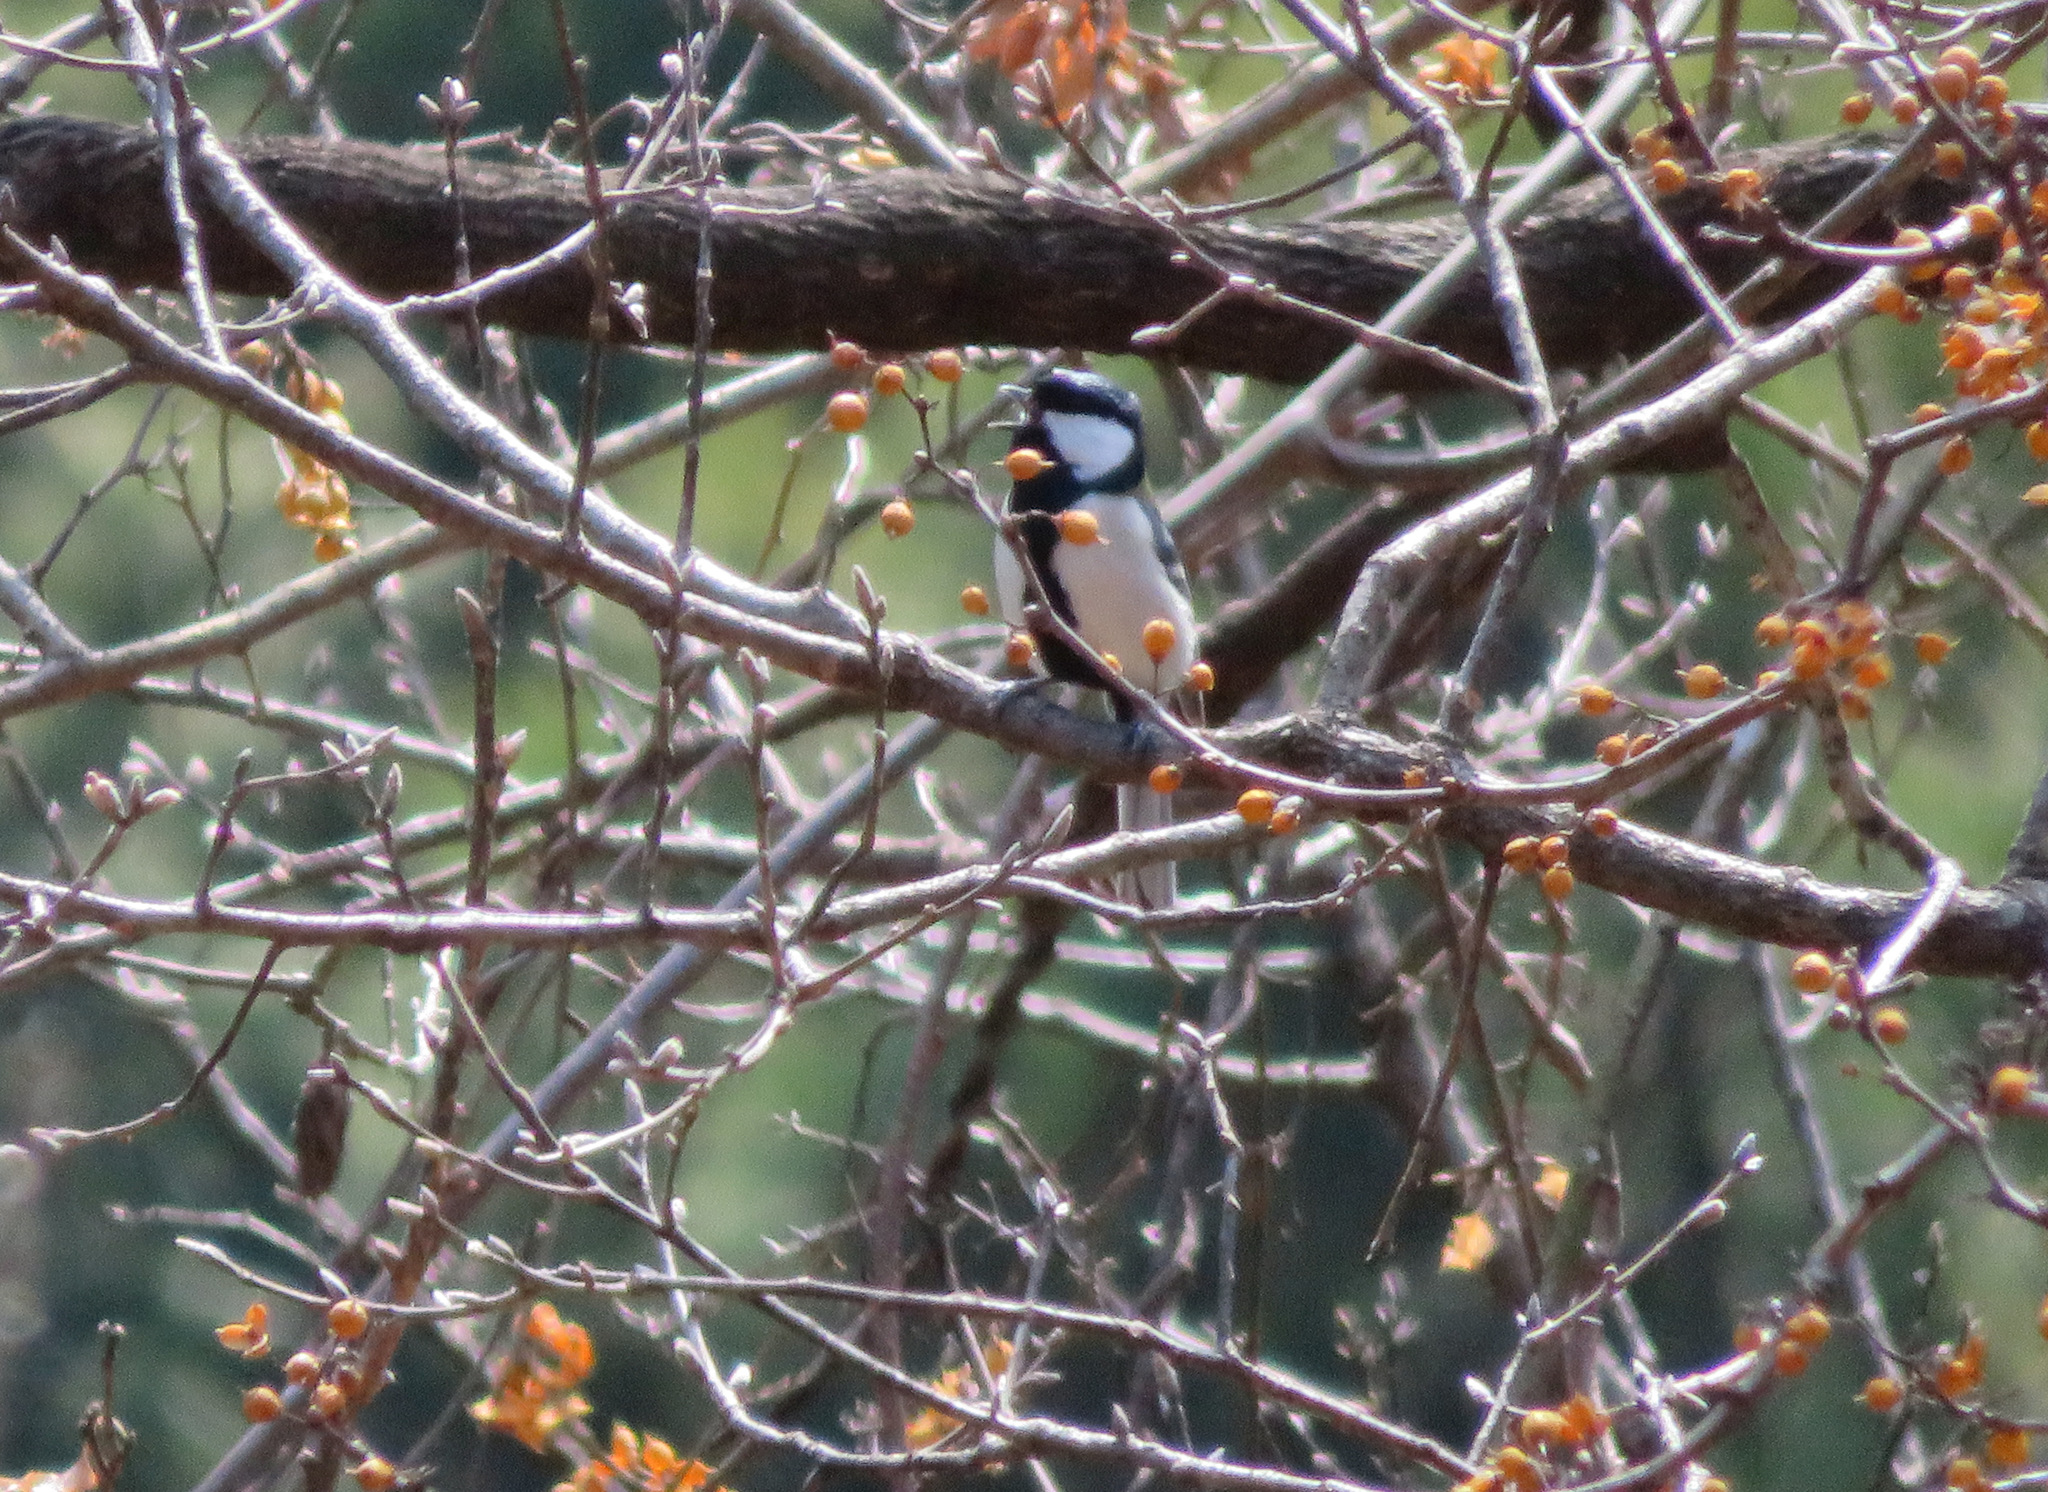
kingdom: Animalia
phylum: Chordata
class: Aves
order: Passeriformes
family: Paridae
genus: Parus
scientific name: Parus minor
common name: Japanese tit
